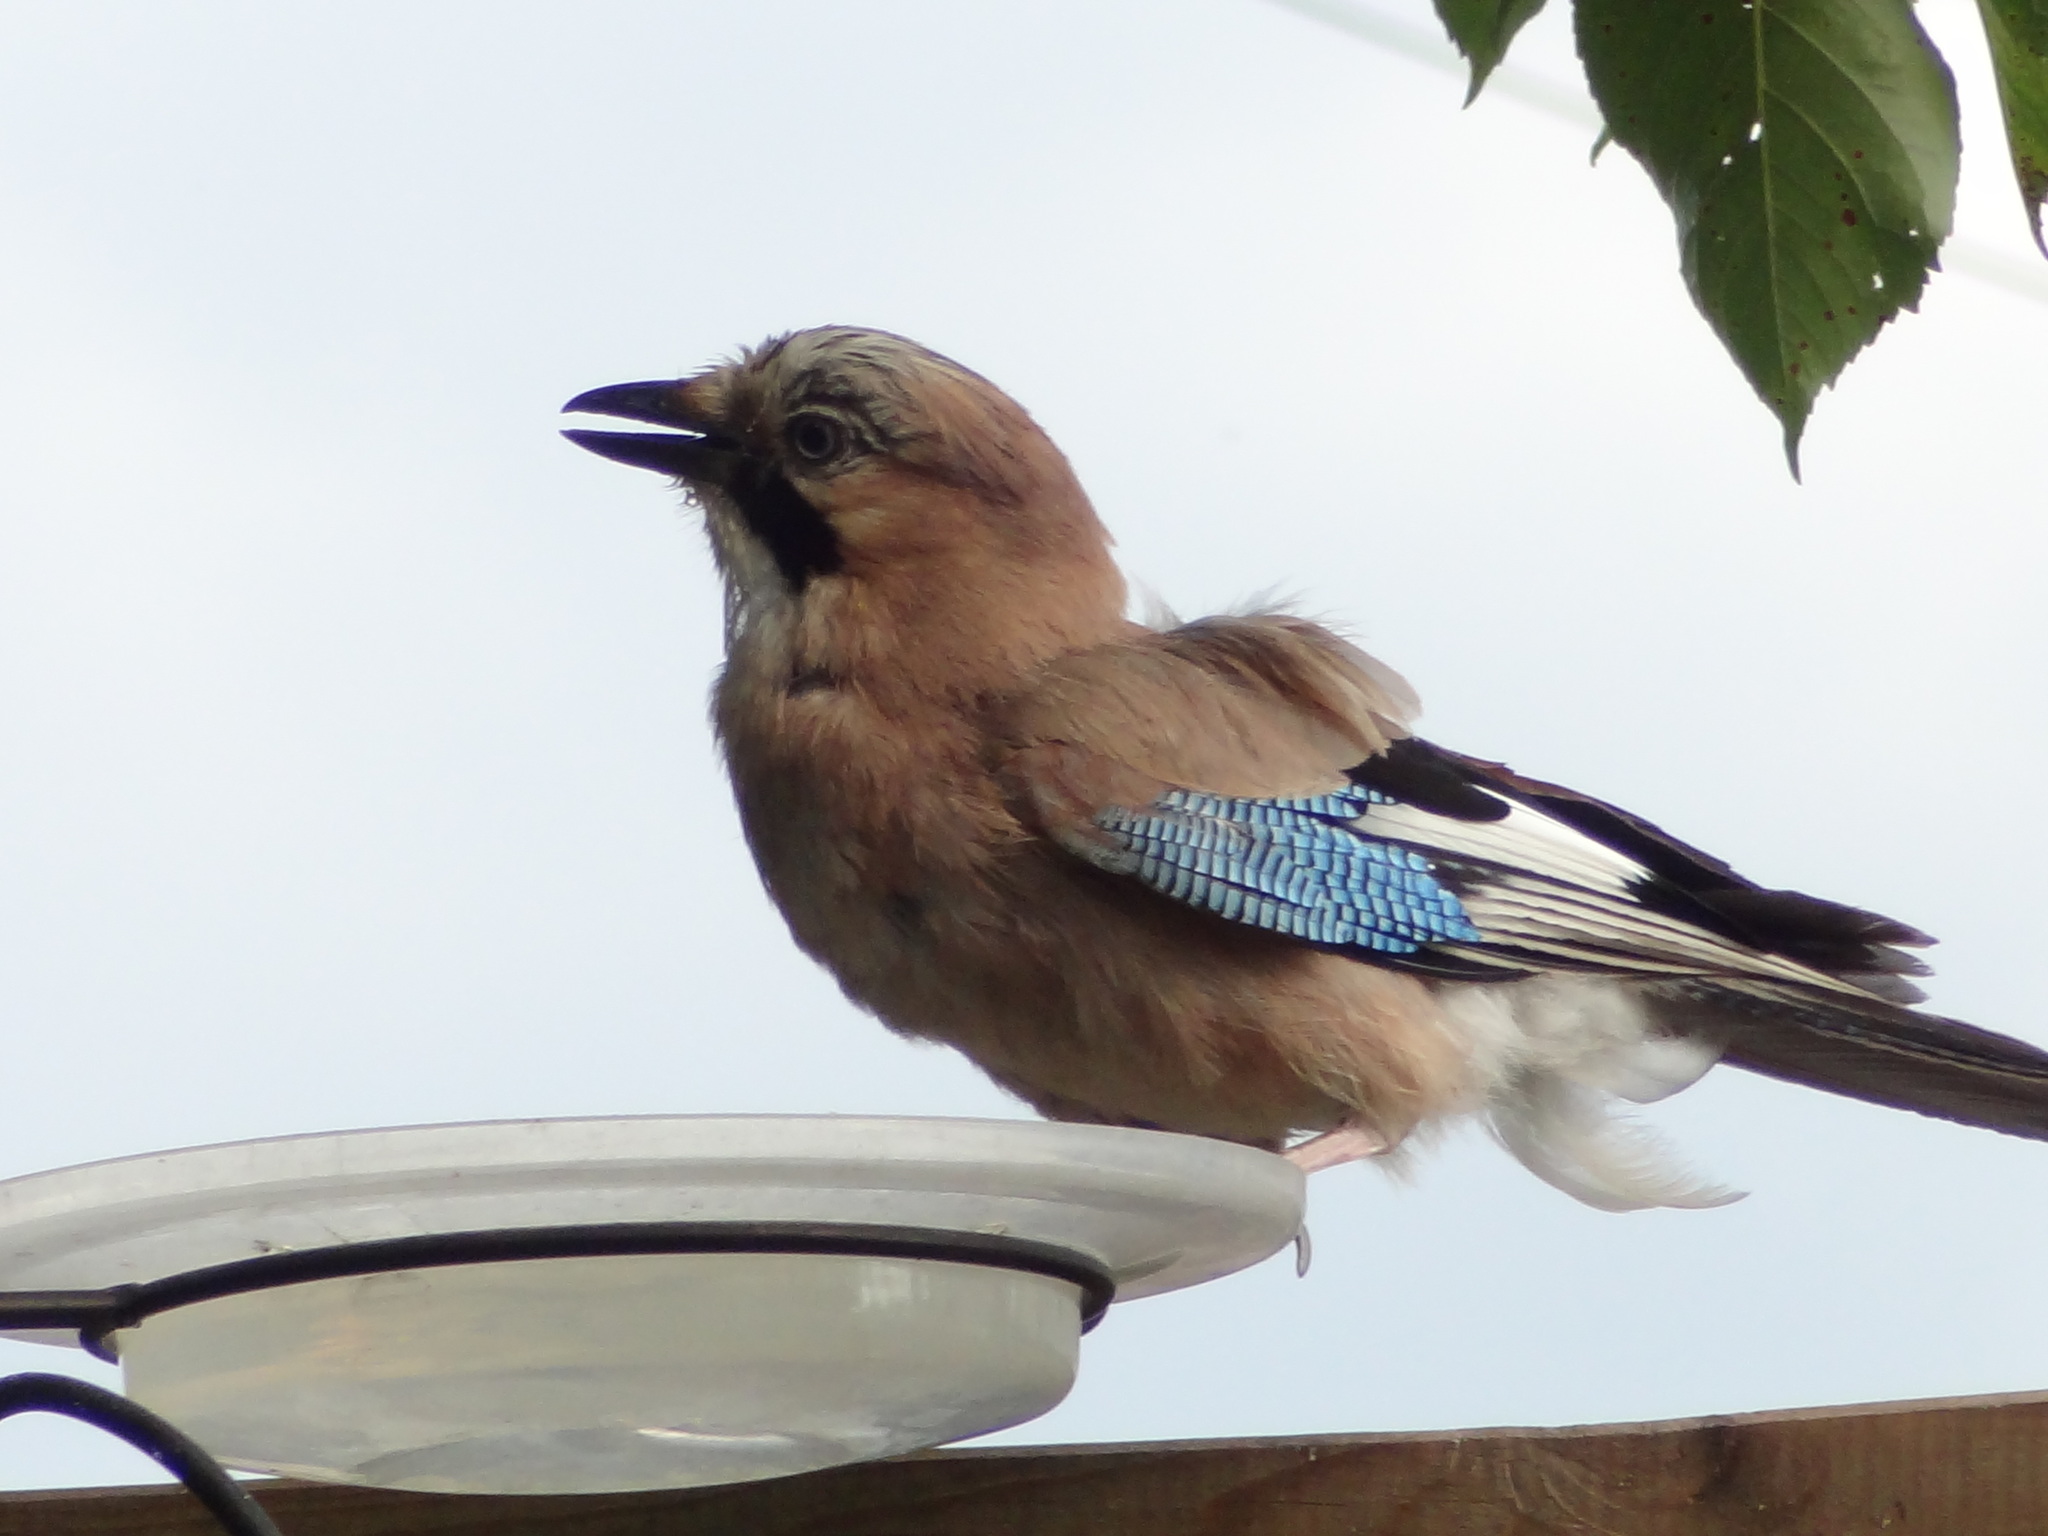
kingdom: Animalia
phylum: Chordata
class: Aves
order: Passeriformes
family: Corvidae
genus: Garrulus
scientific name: Garrulus glandarius
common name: Eurasian jay
